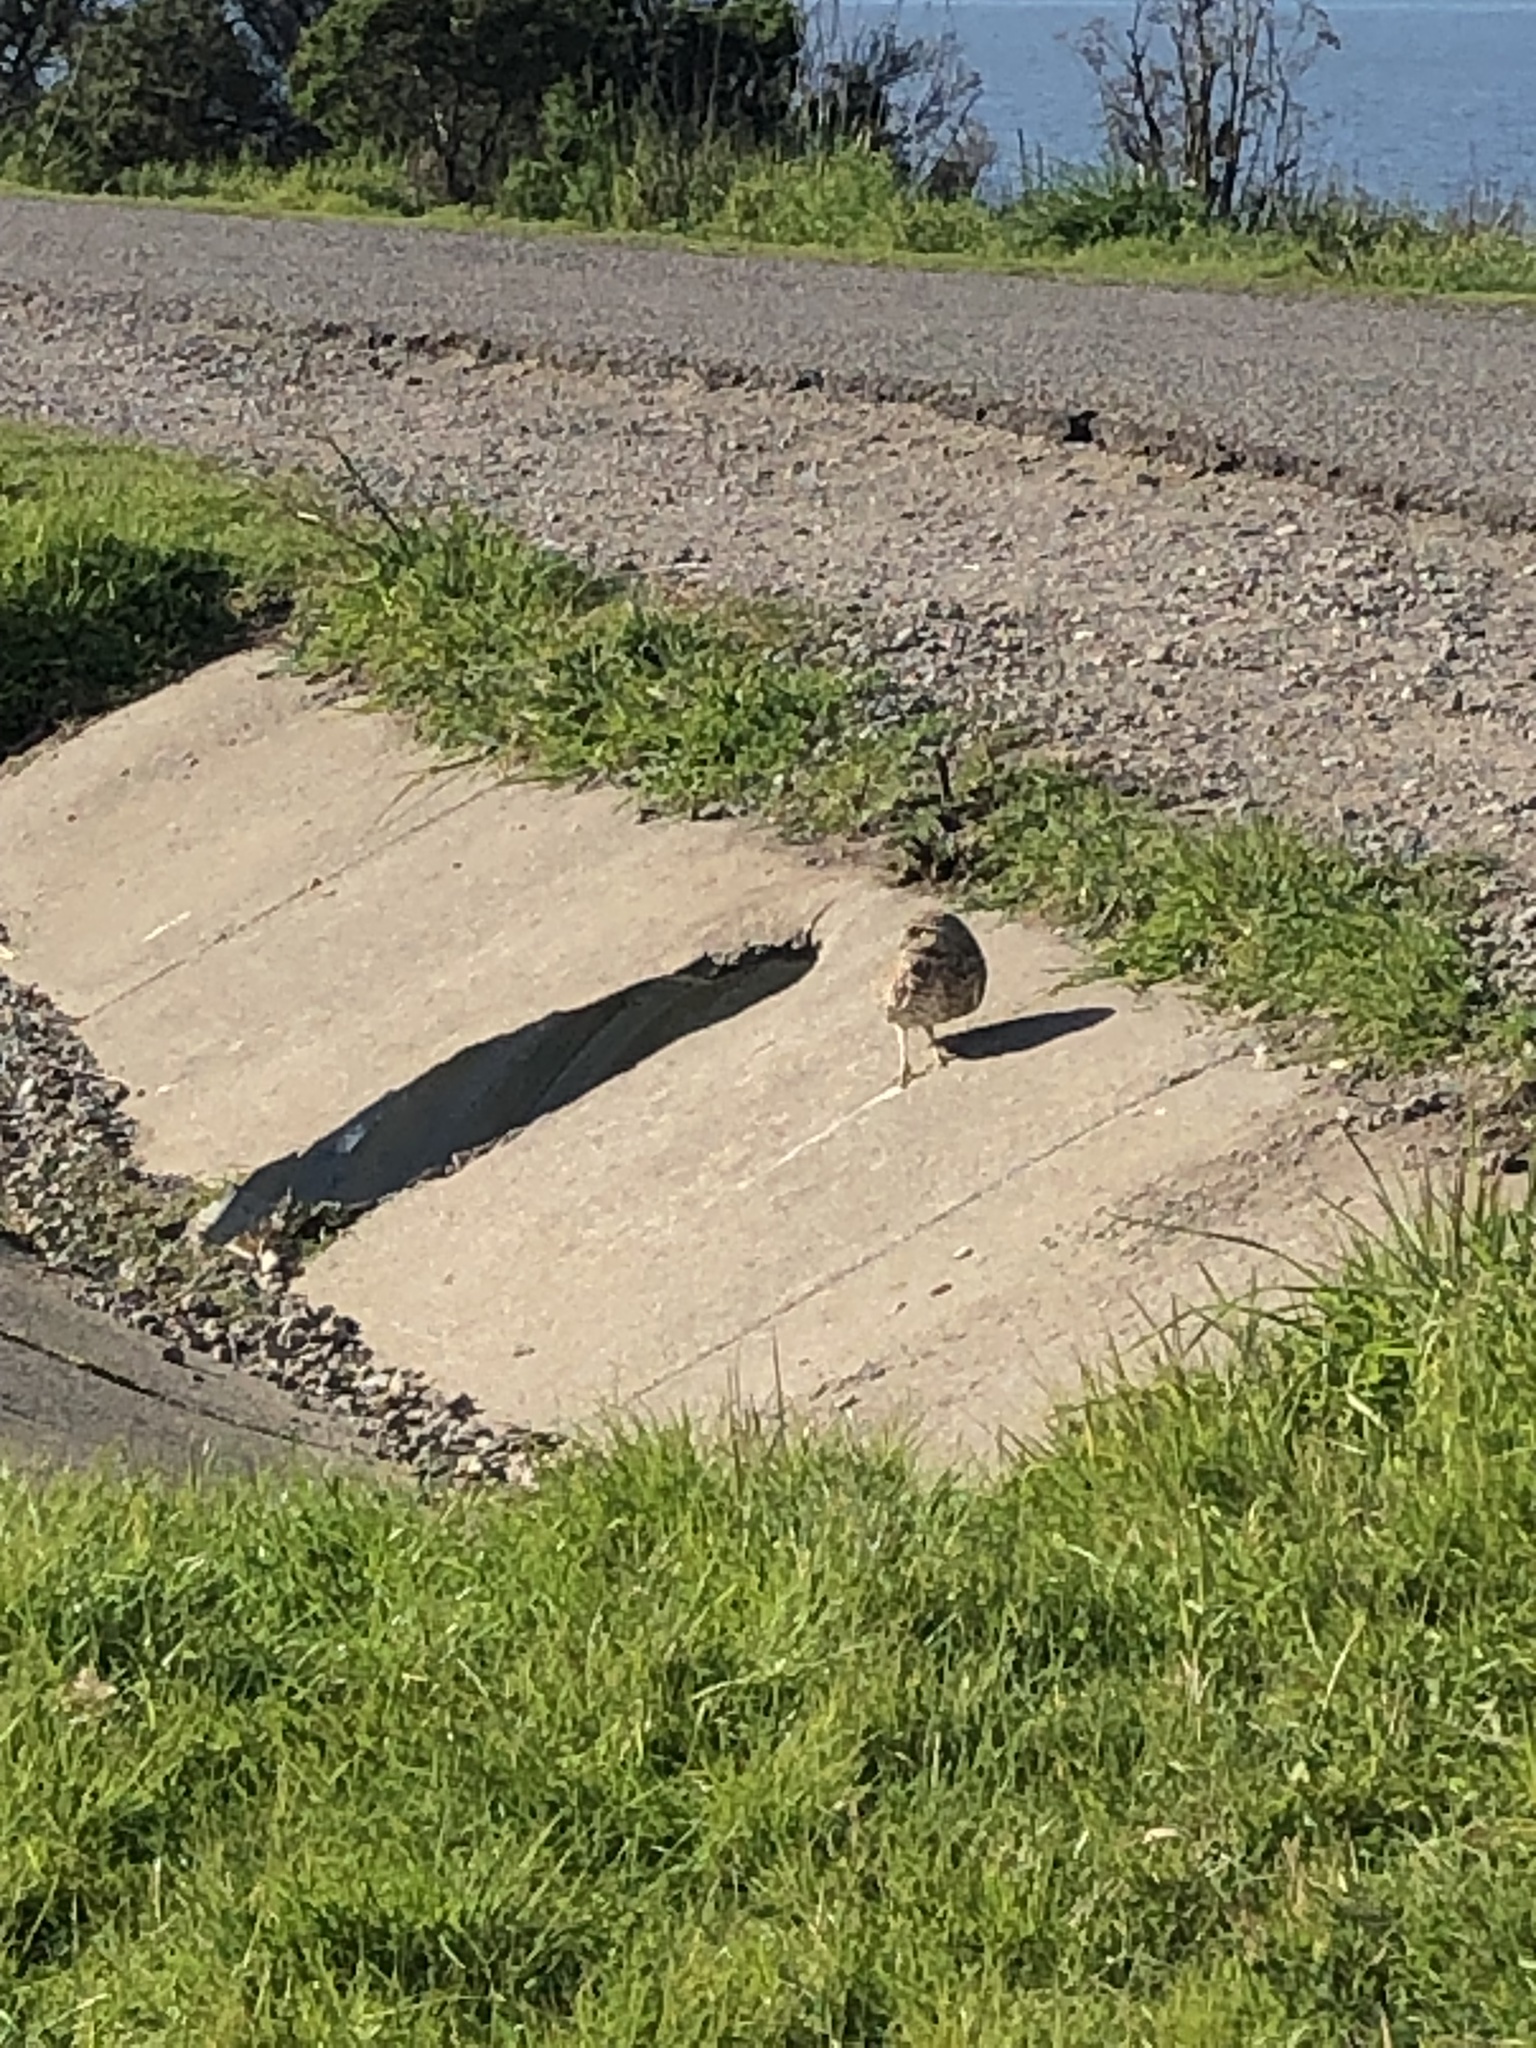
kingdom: Animalia
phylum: Chordata
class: Aves
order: Strigiformes
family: Strigidae
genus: Athene
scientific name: Athene cunicularia
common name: Burrowing owl
